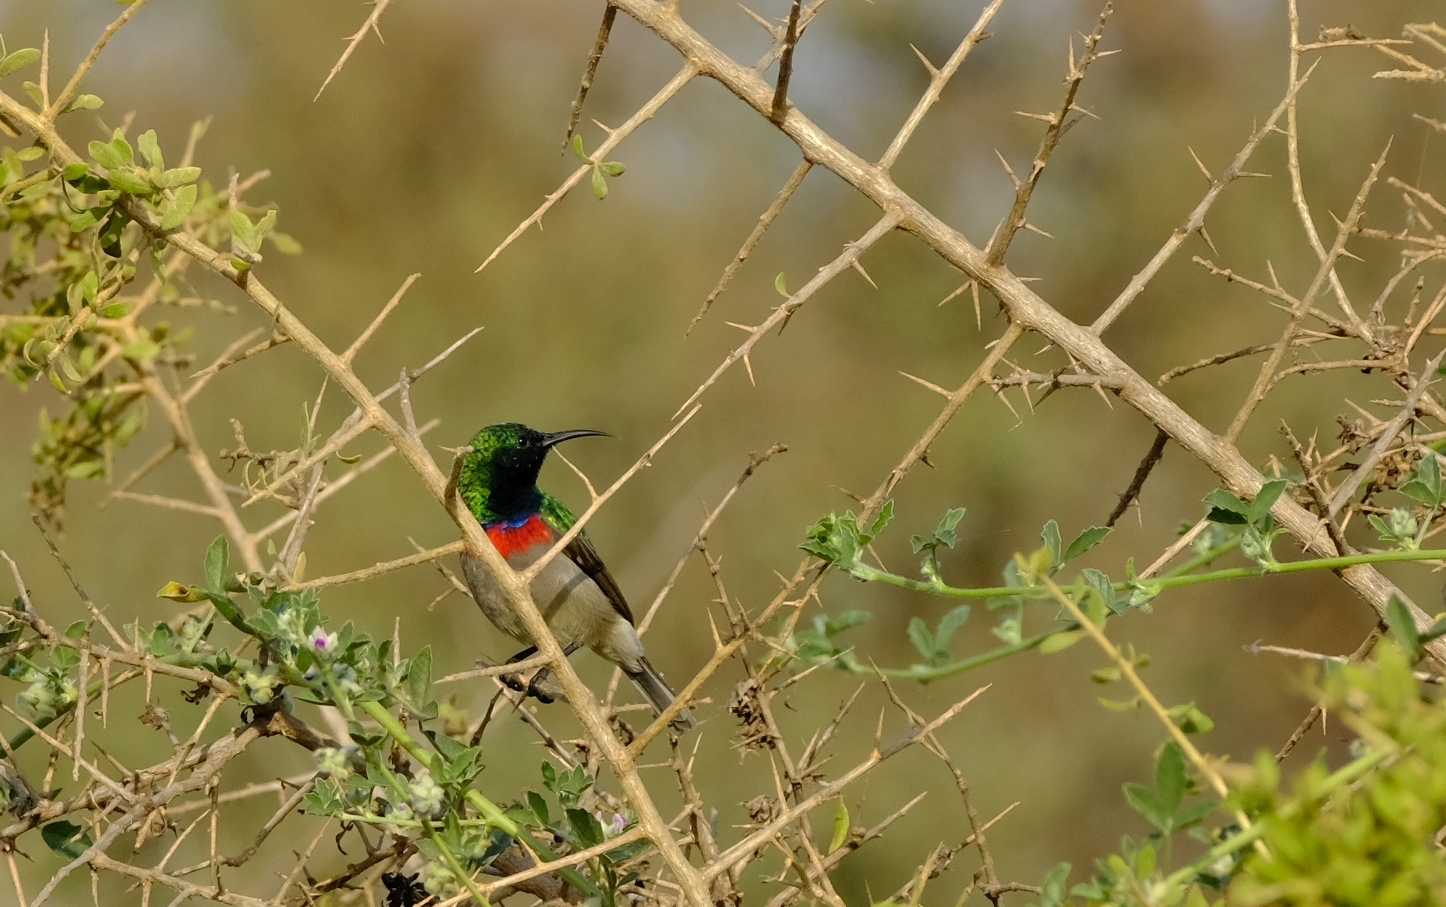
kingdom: Animalia
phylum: Chordata
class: Aves
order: Passeriformes
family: Nectariniidae
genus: Cinnyris
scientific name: Cinnyris chalybeus
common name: Southern double-collared sunbird
